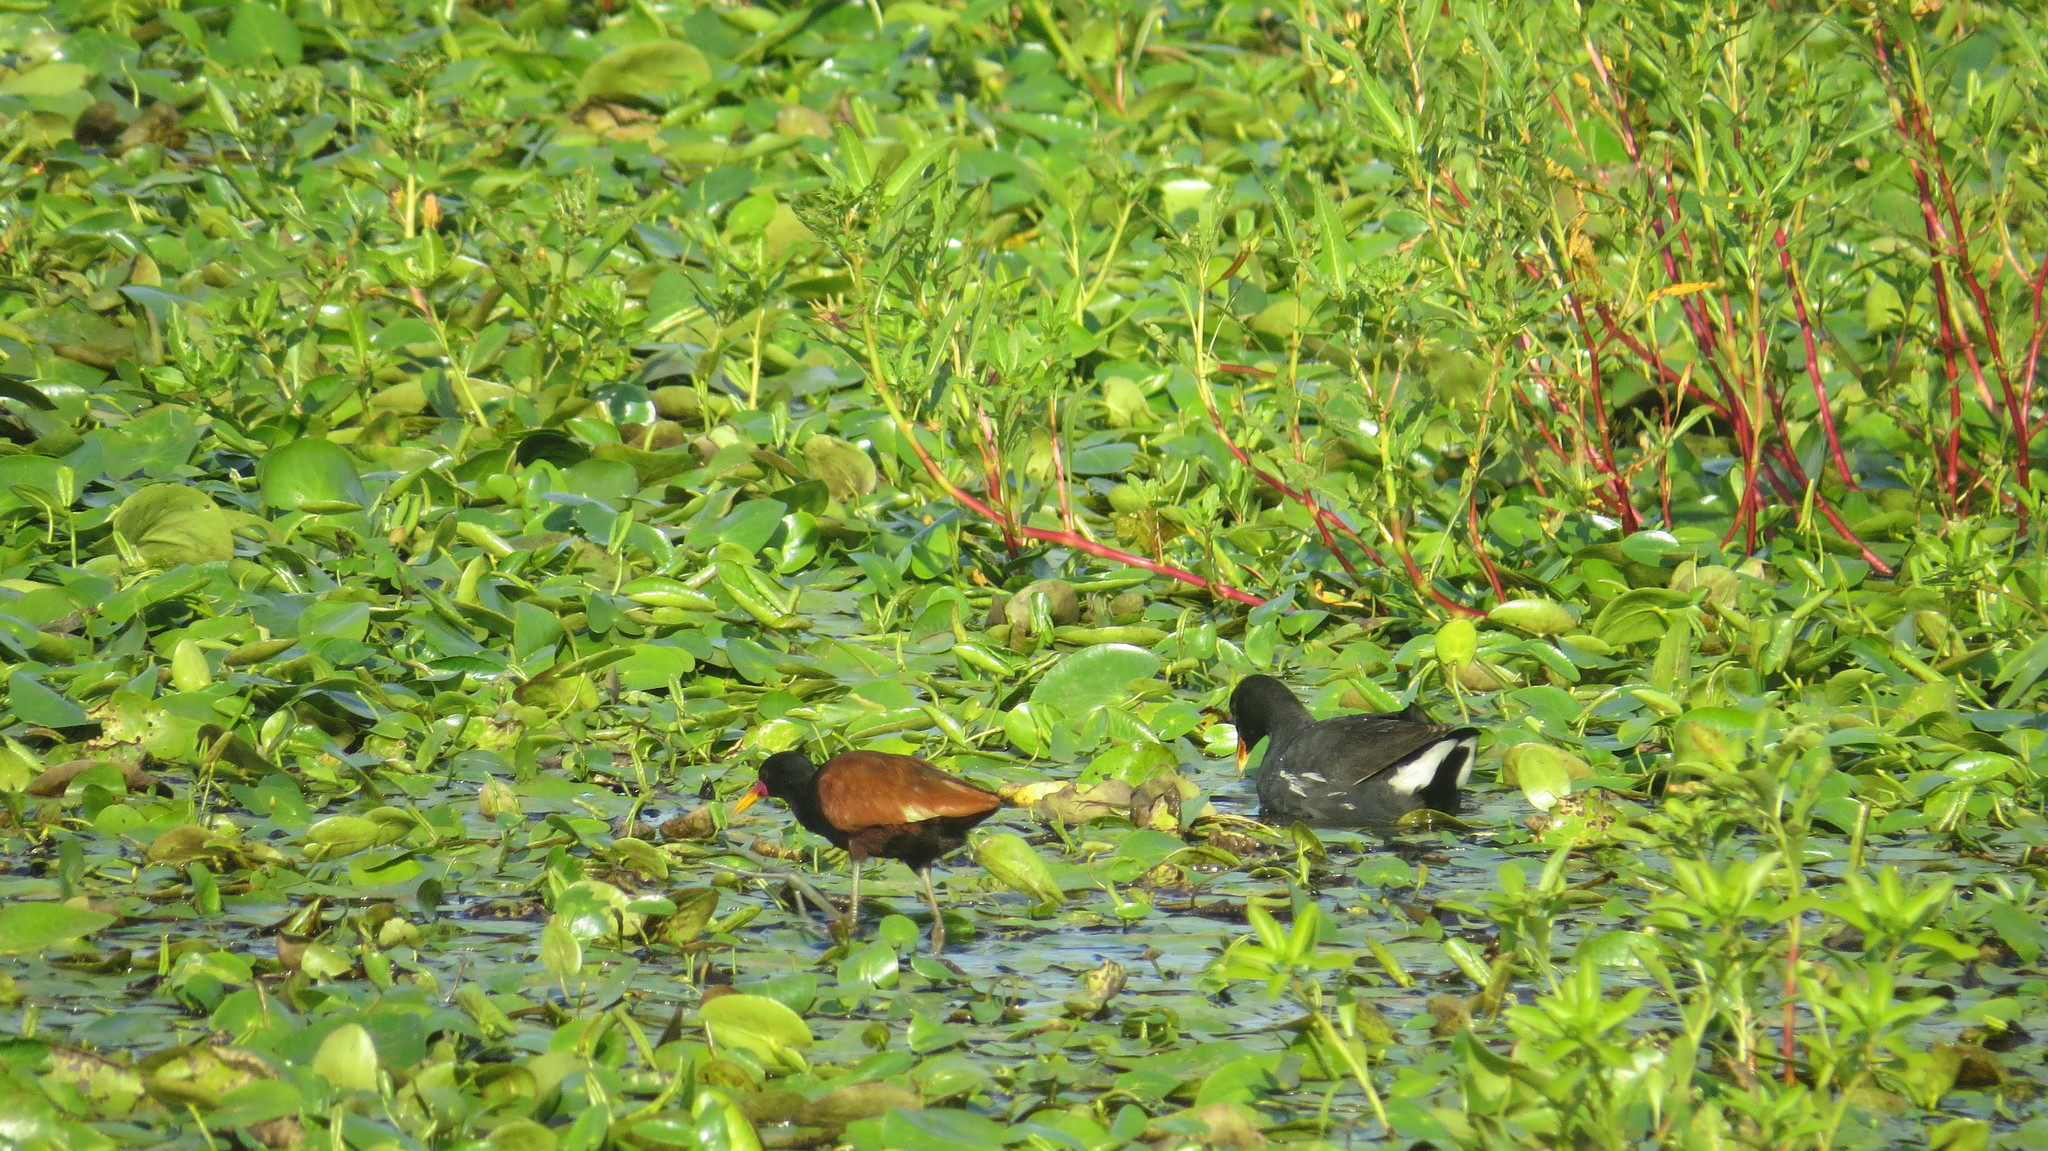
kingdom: Animalia
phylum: Chordata
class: Aves
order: Charadriiformes
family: Jacanidae
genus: Jacana
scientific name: Jacana jacana
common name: Wattled jacana
